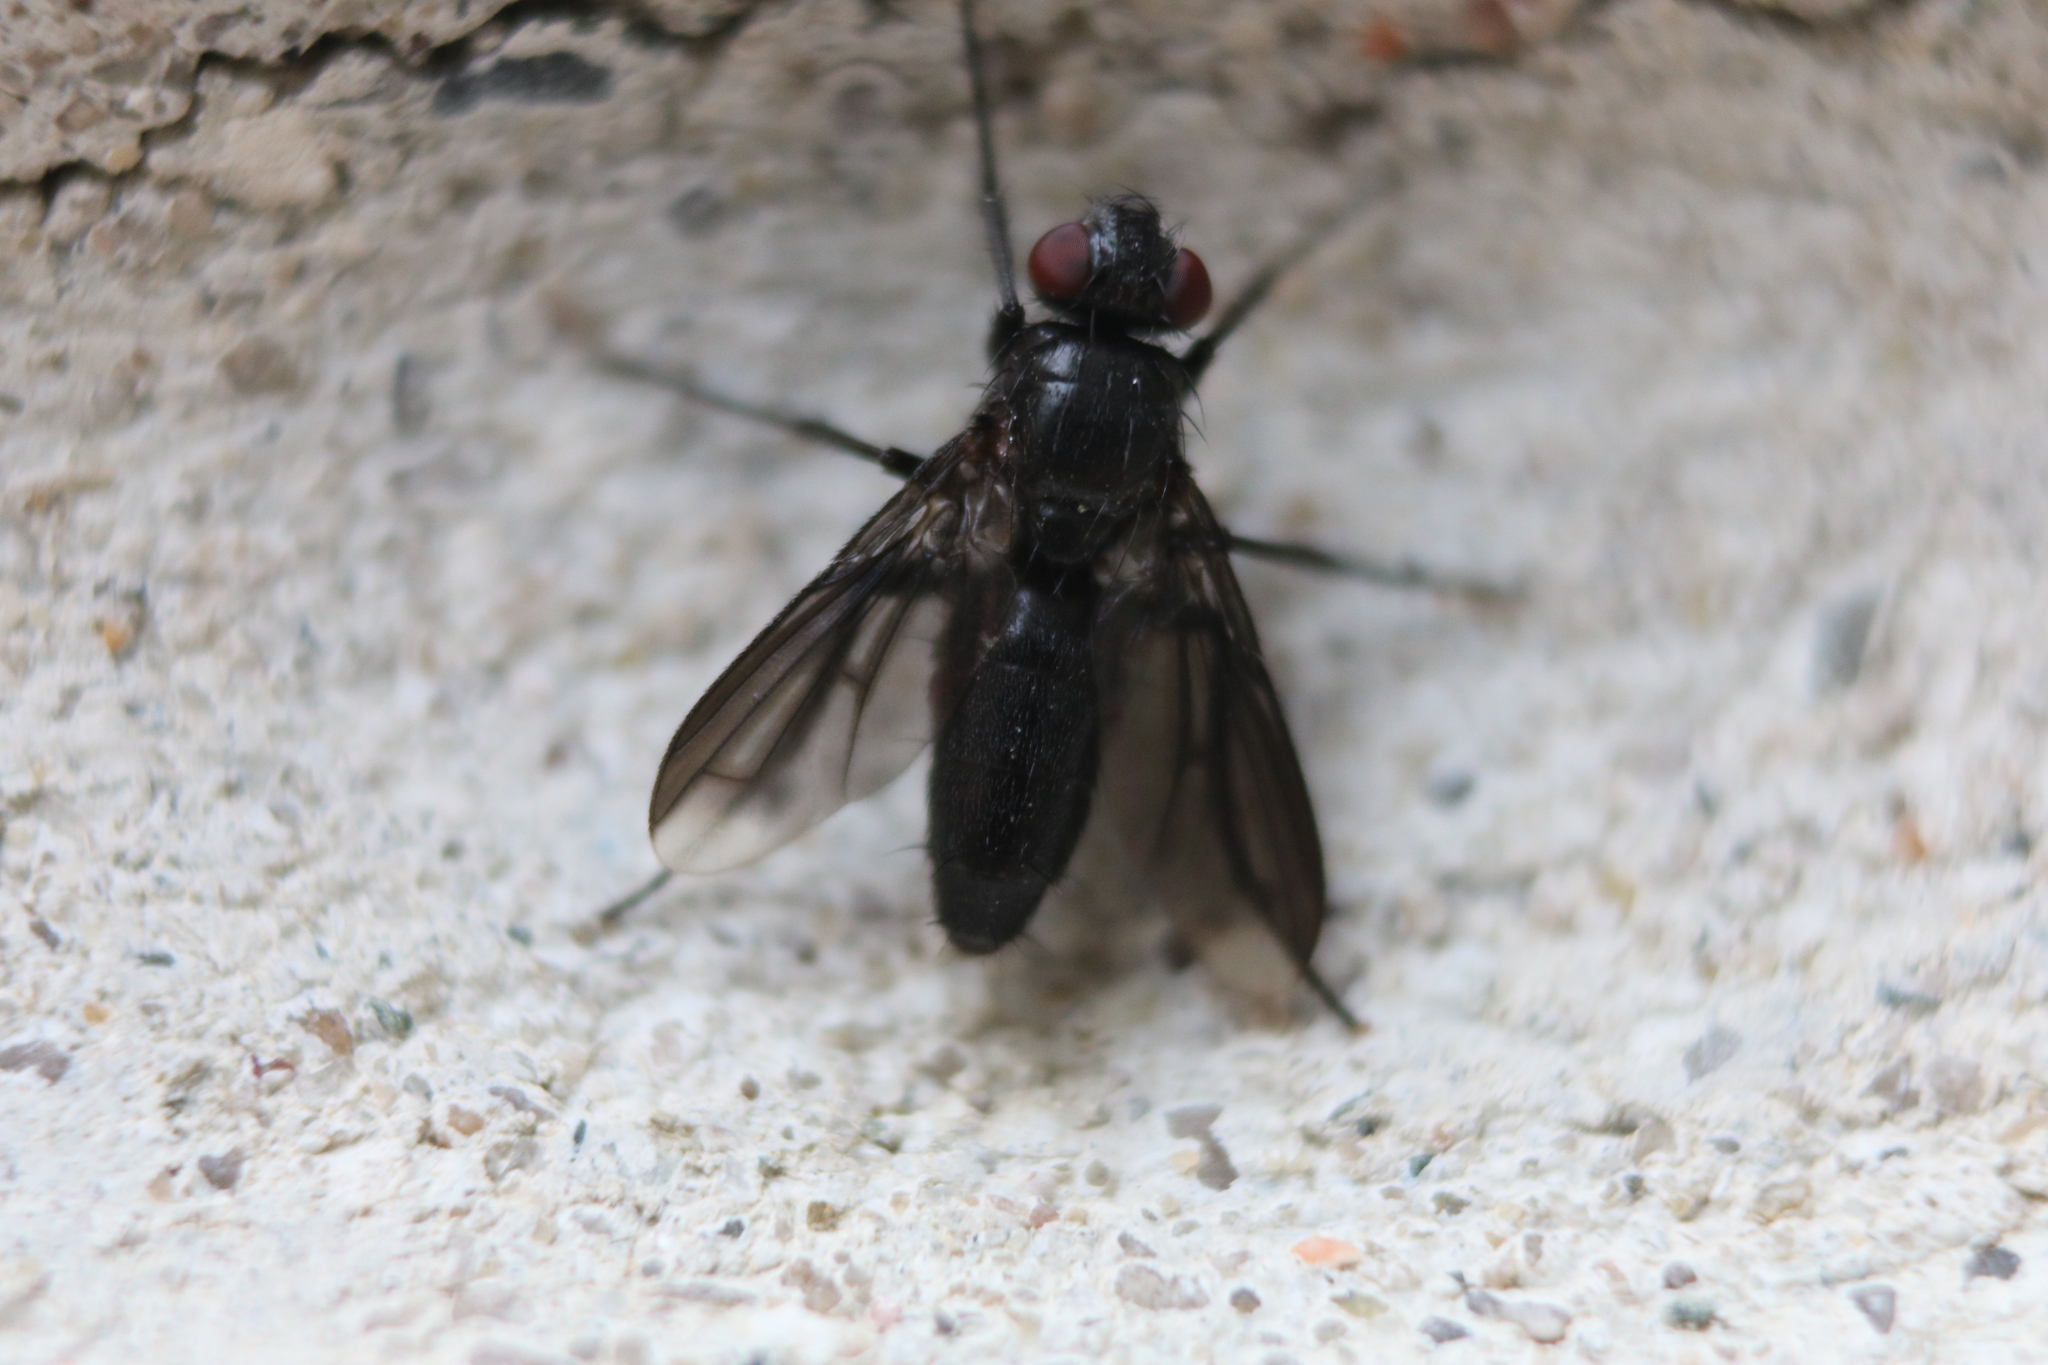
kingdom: Animalia
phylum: Arthropoda
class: Insecta
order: Diptera
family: Calliphoridae
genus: Melanophora
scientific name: Melanophora roralis
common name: Smoky-winged woodlouse-fly
